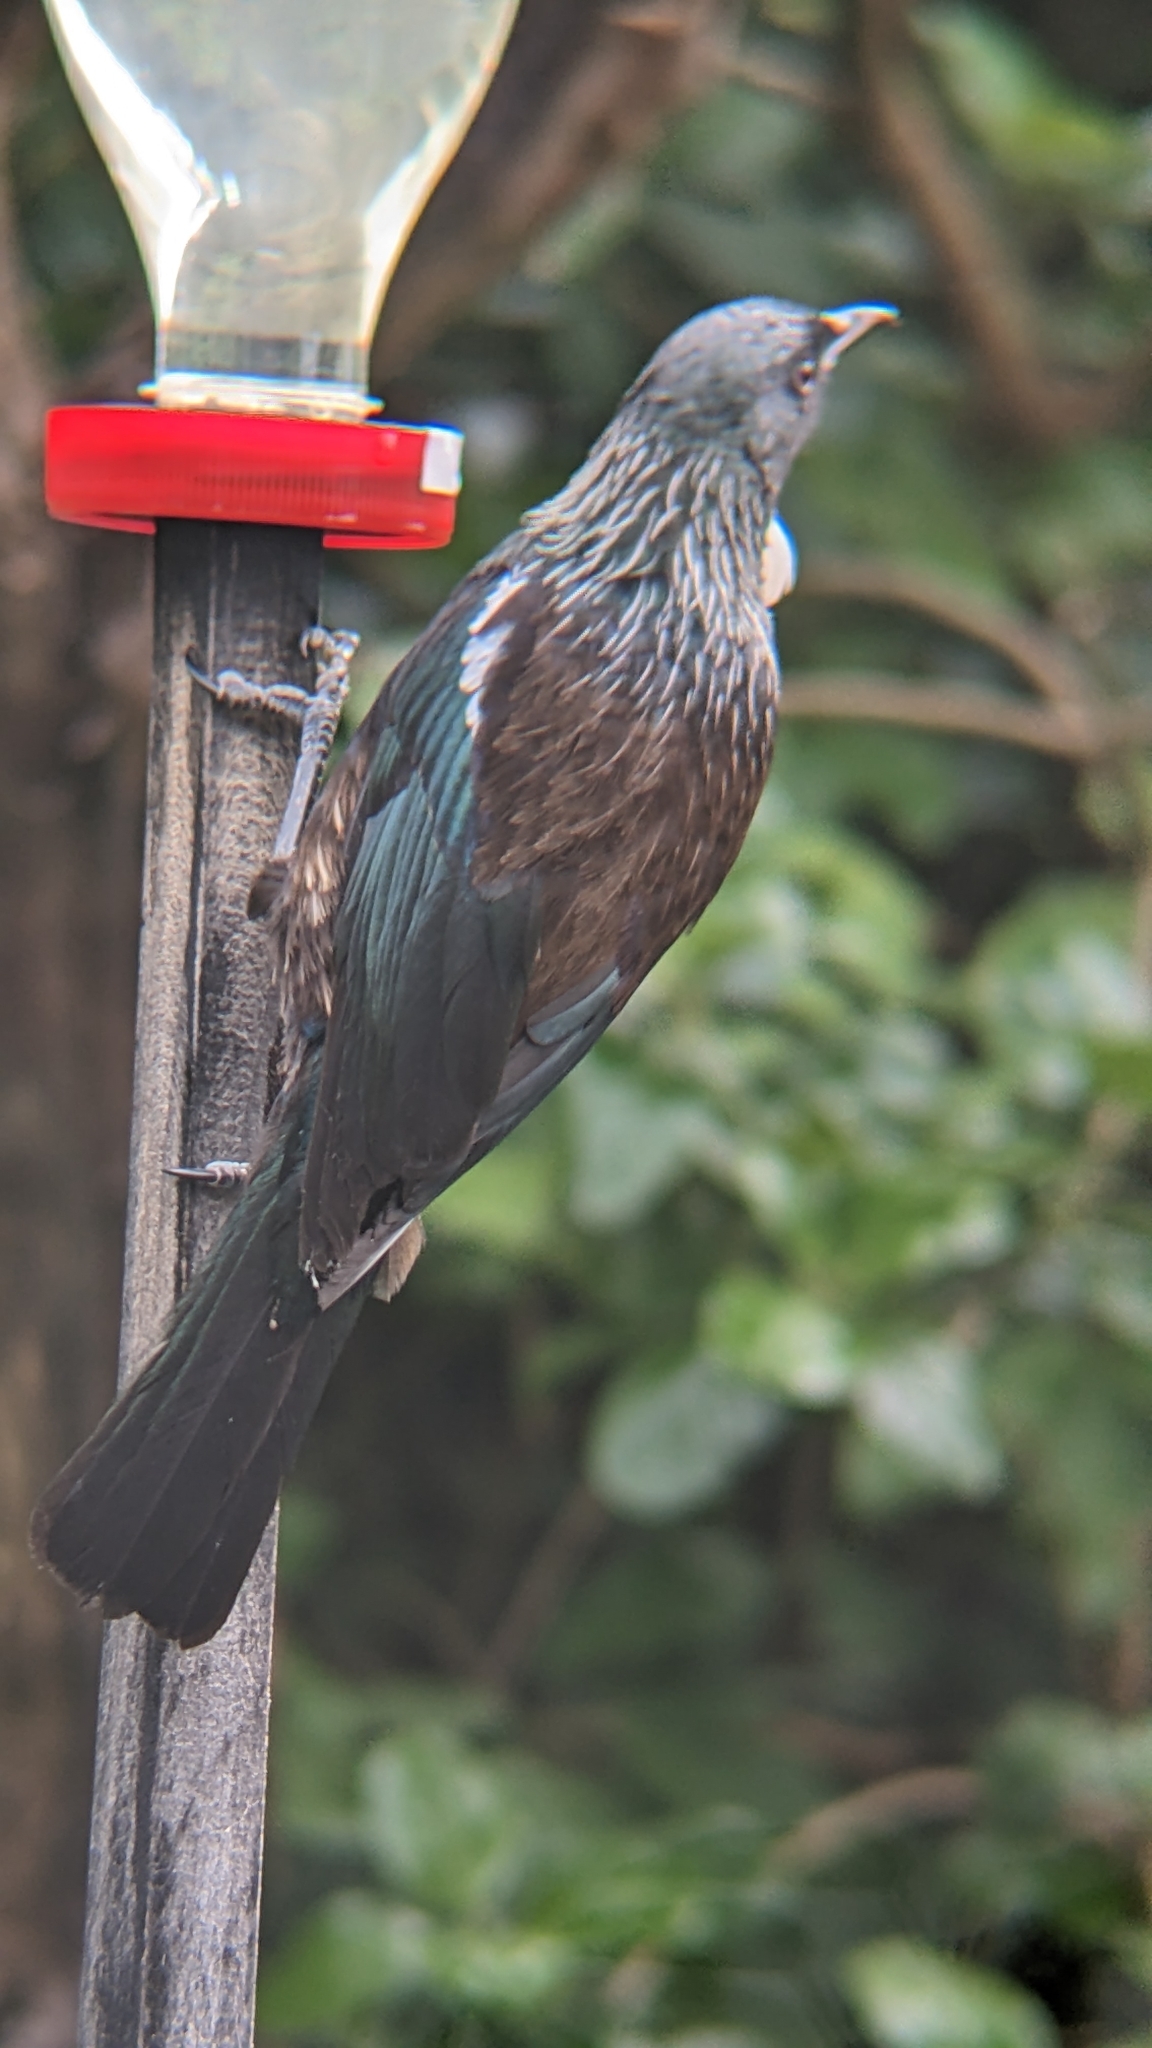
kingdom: Animalia
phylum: Chordata
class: Aves
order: Passeriformes
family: Meliphagidae
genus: Prosthemadera
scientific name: Prosthemadera novaeseelandiae
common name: Tui
